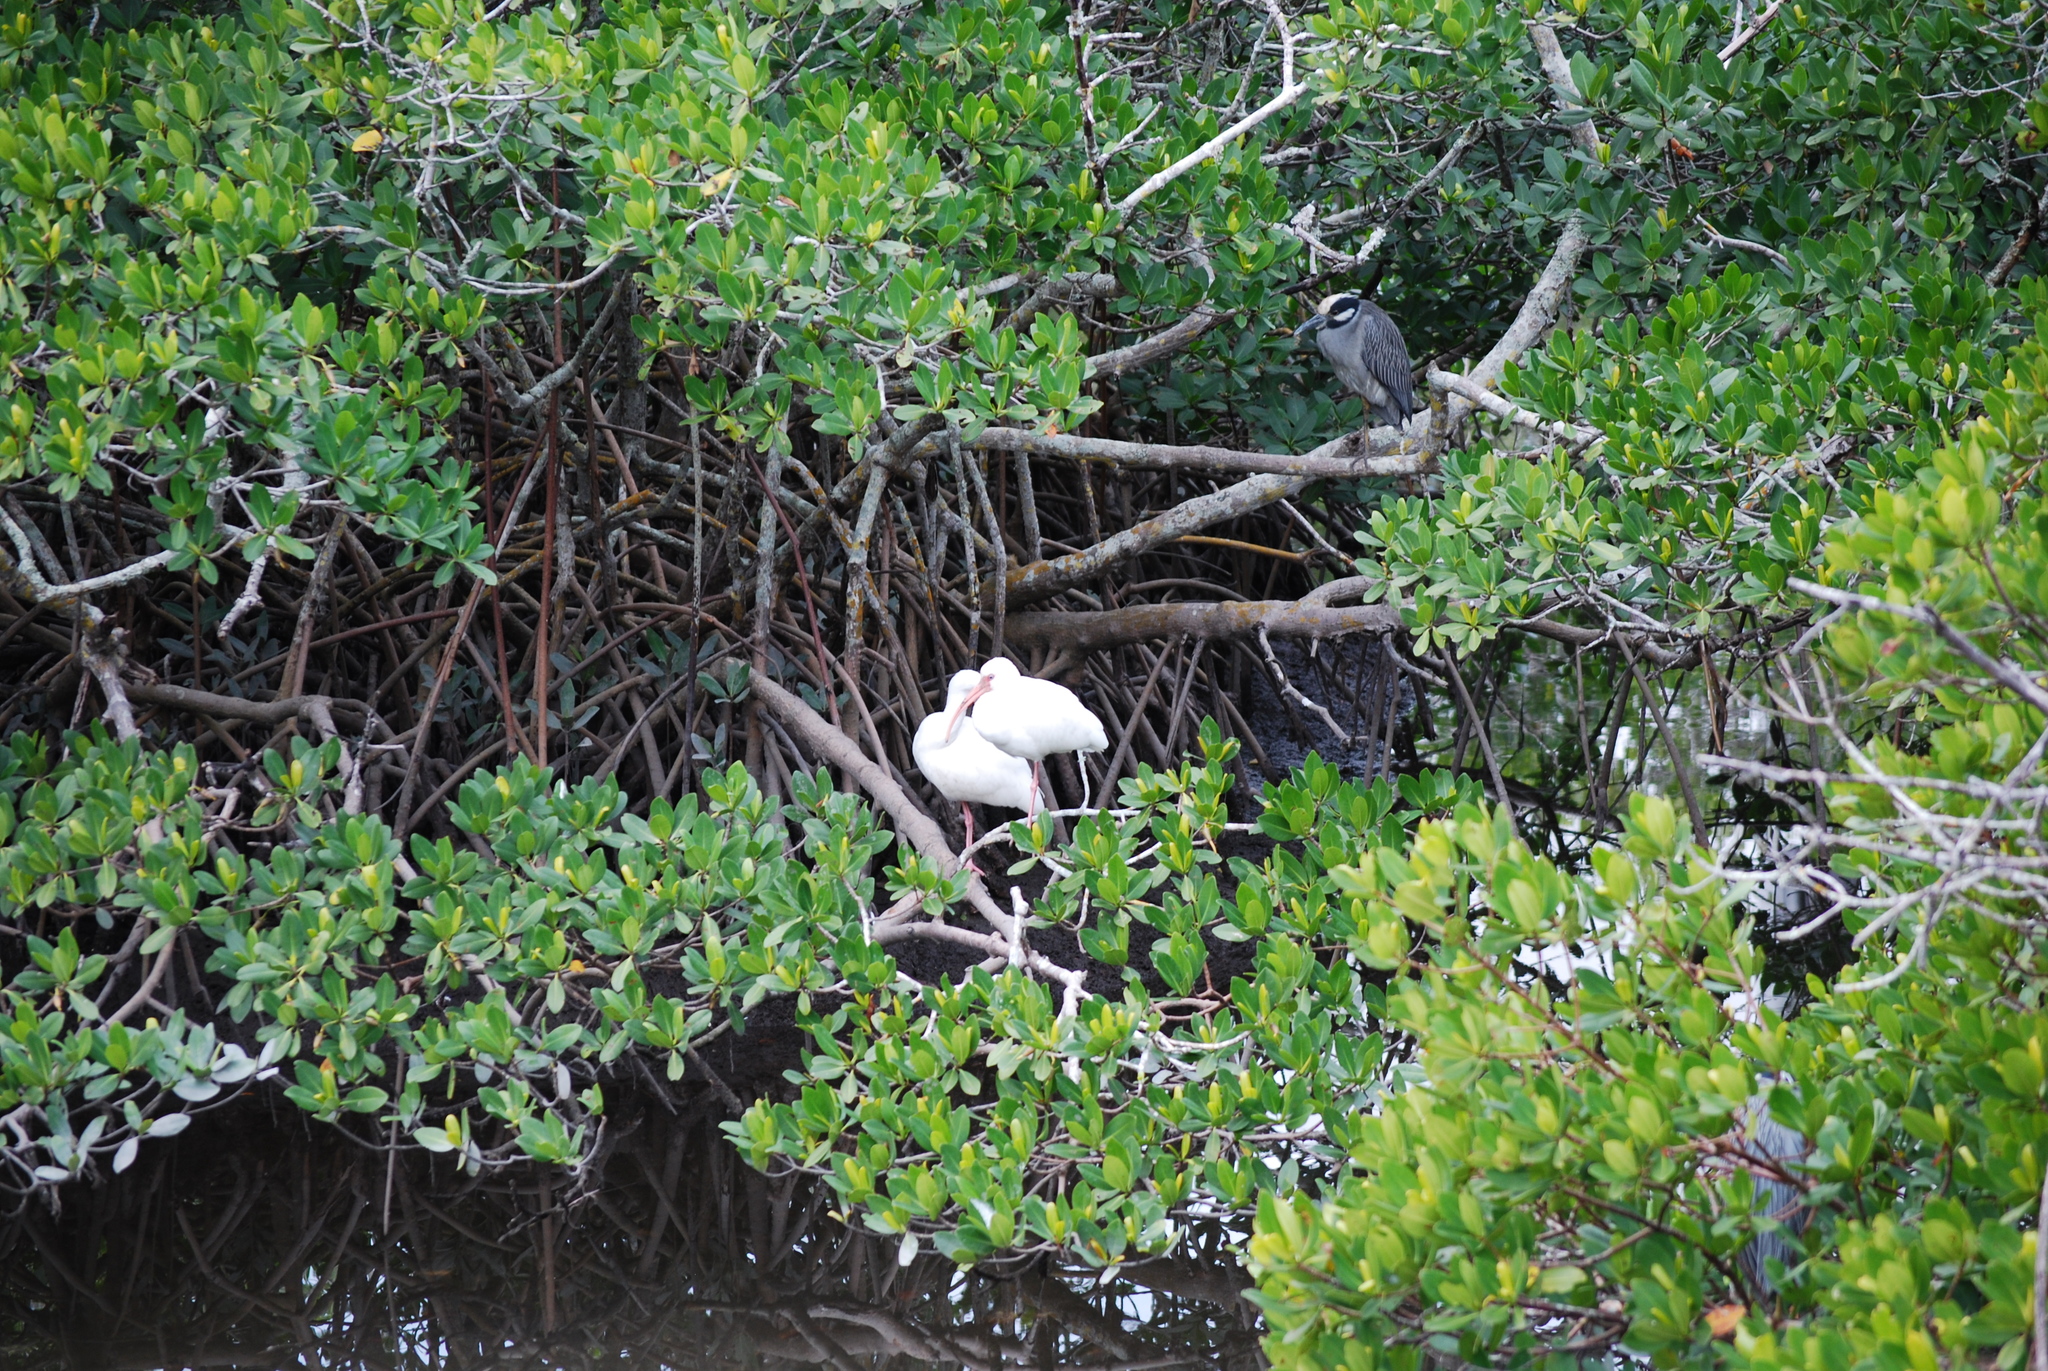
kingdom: Animalia
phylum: Chordata
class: Aves
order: Pelecaniformes
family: Threskiornithidae
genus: Eudocimus
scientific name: Eudocimus albus
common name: White ibis
